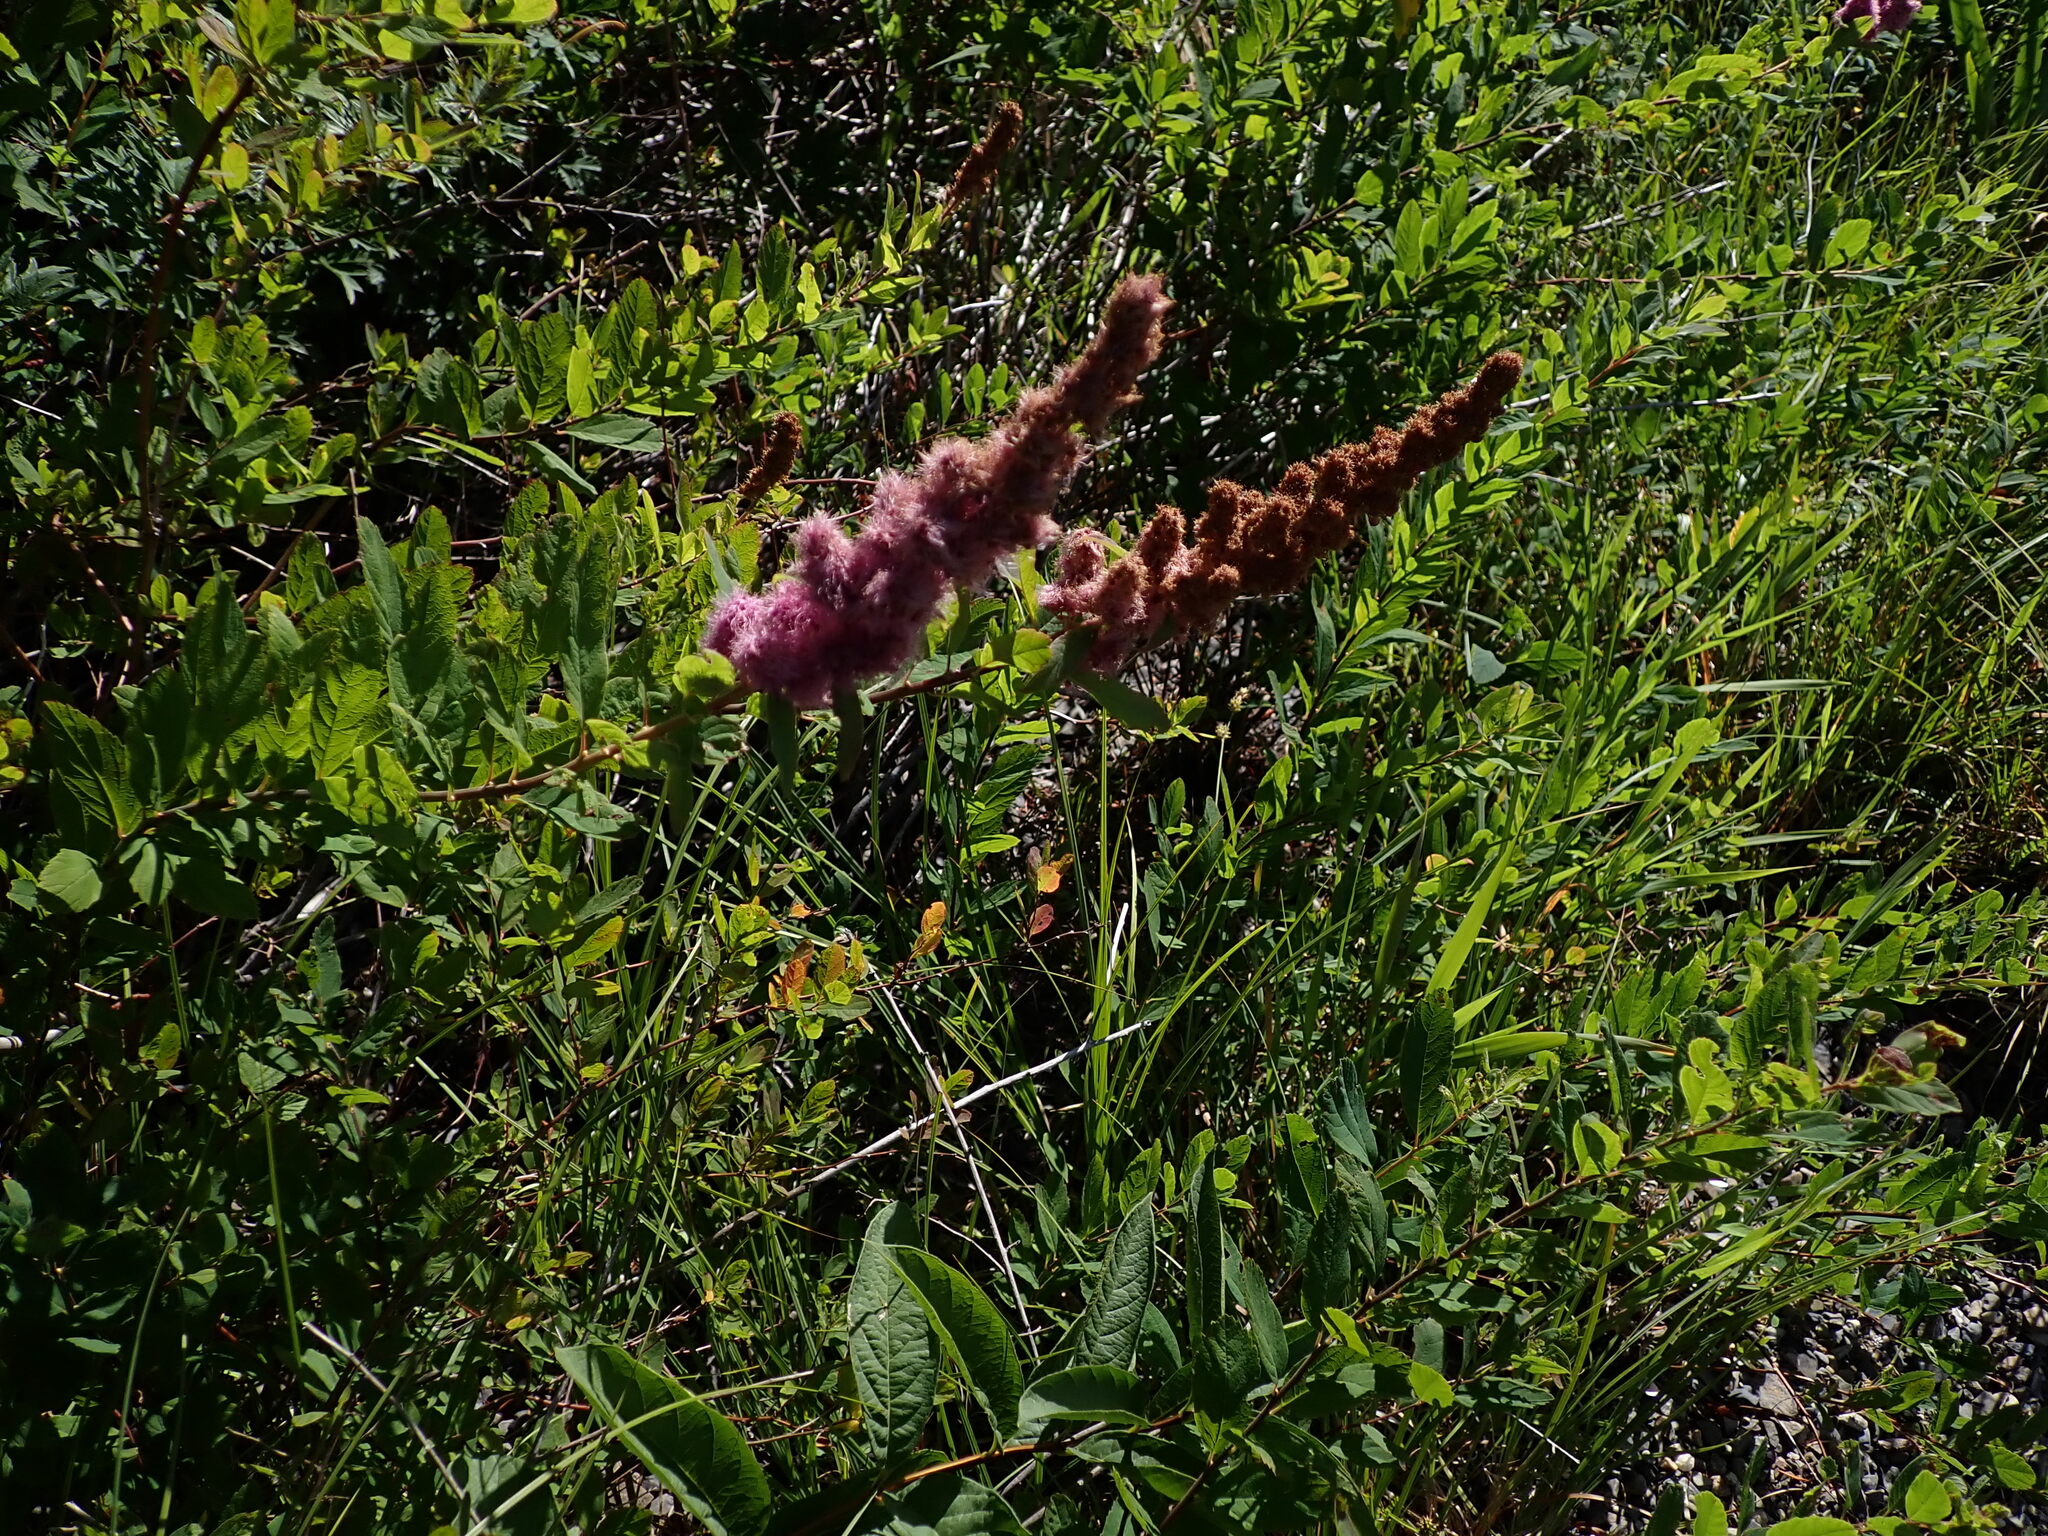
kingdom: Plantae
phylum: Tracheophyta
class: Magnoliopsida
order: Rosales
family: Rosaceae
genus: Spiraea
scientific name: Spiraea douglasii
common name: Steeplebush
